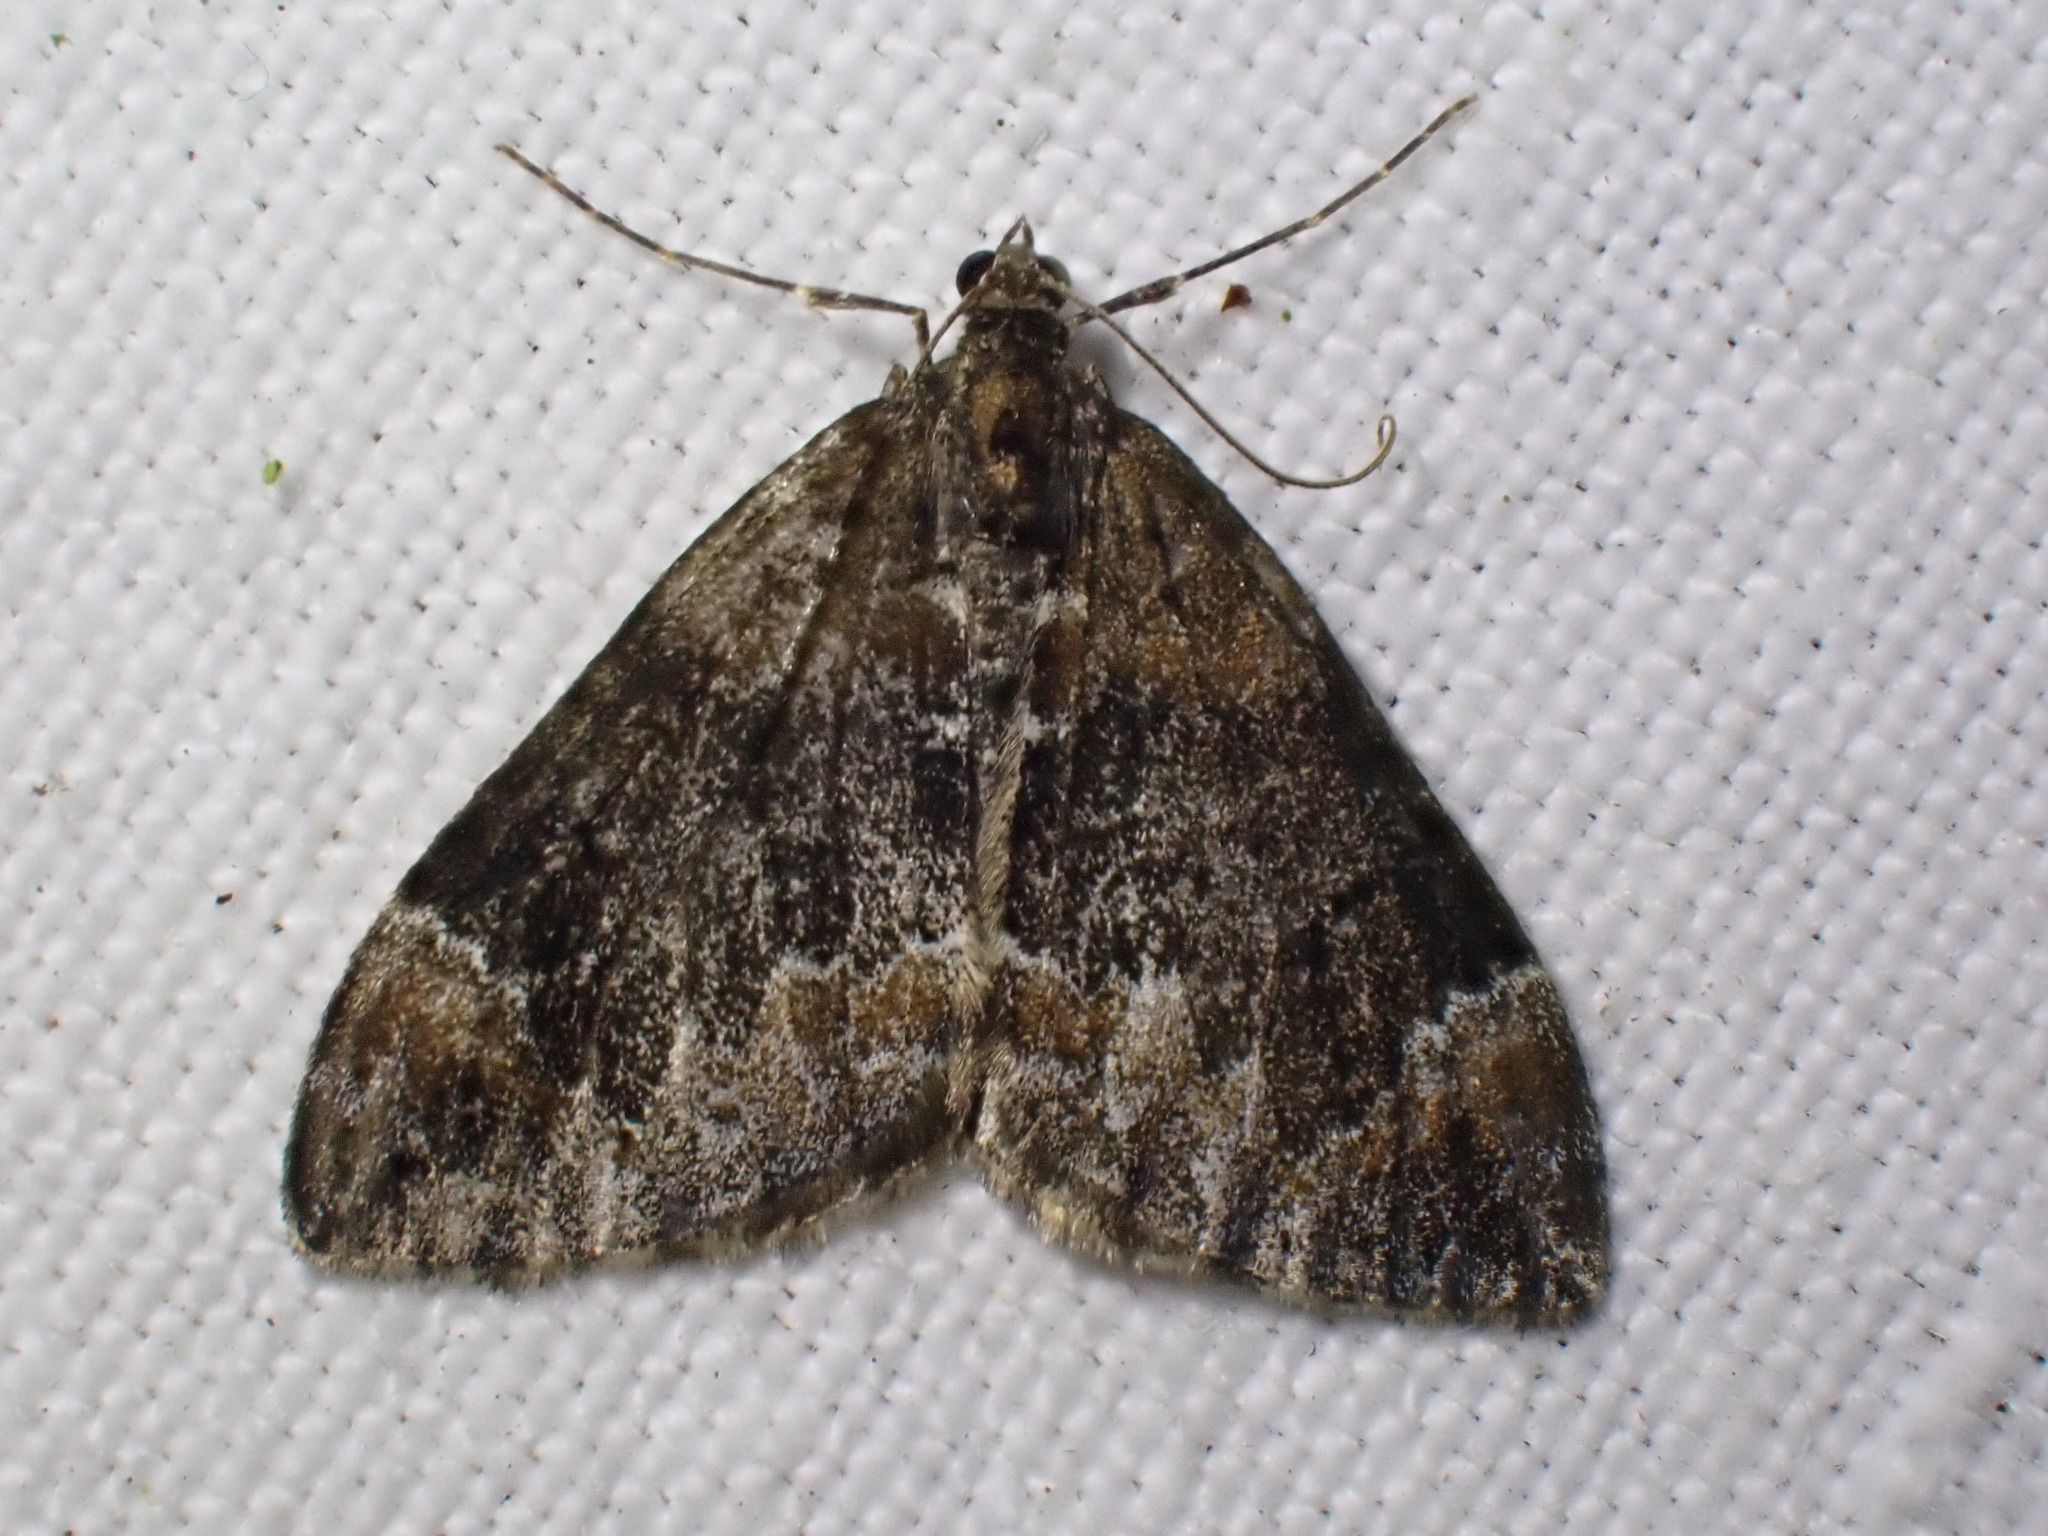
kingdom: Animalia
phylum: Arthropoda
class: Insecta
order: Lepidoptera
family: Geometridae
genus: Dysstroma
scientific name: Dysstroma truncata
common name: Common marbled carpet
